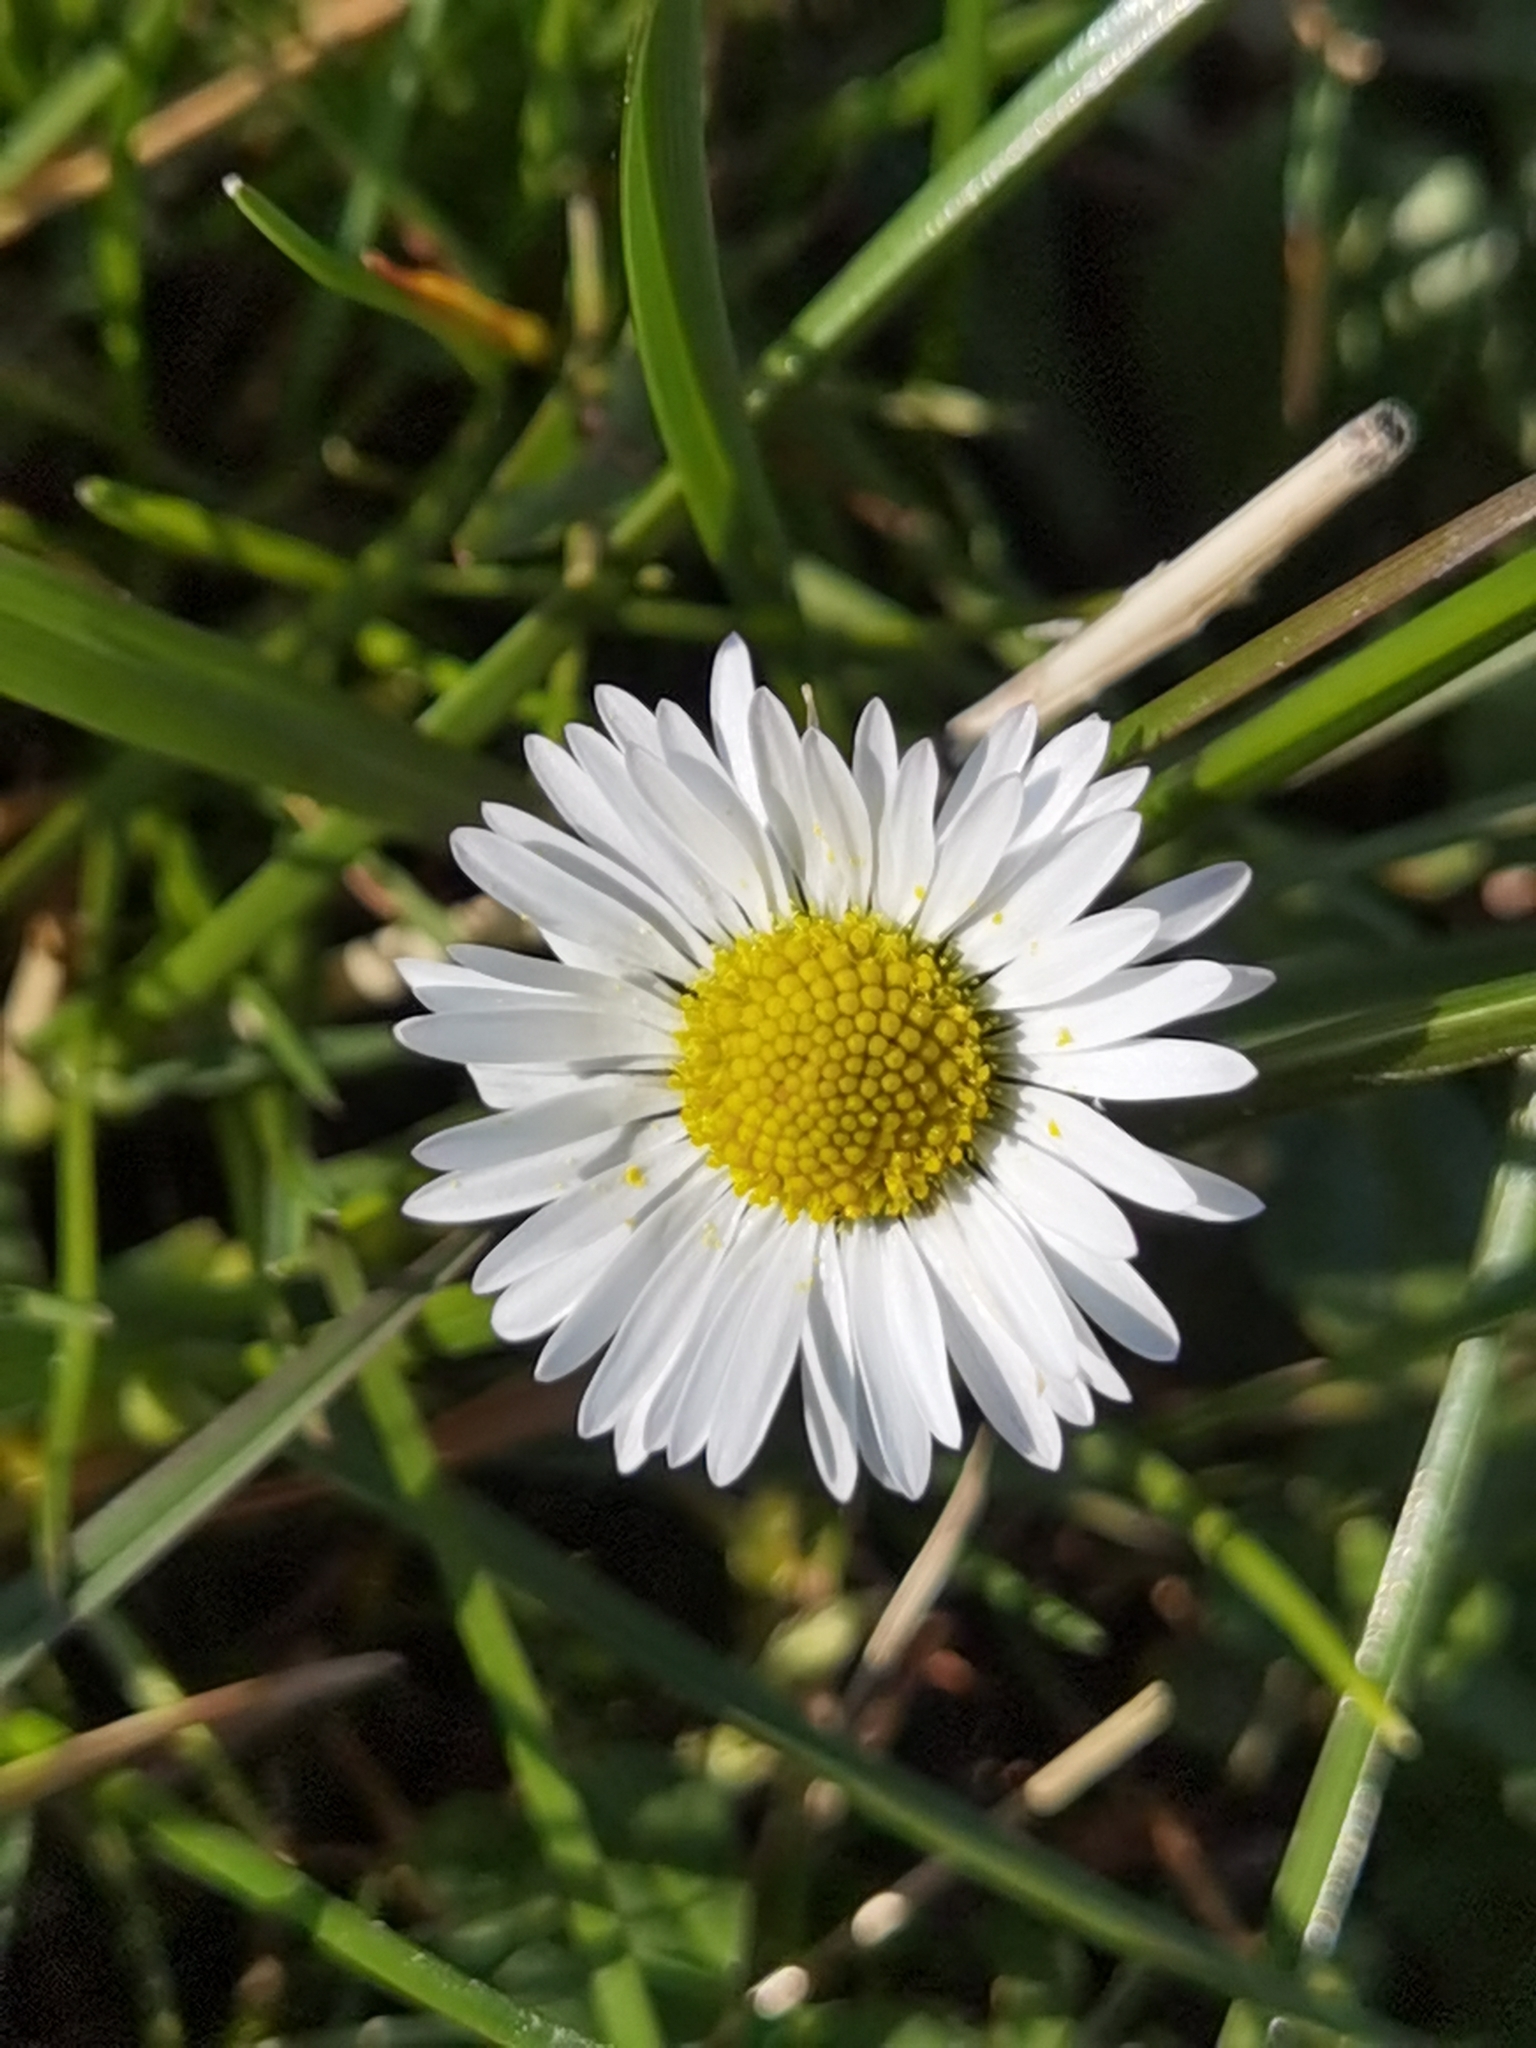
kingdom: Plantae
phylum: Tracheophyta
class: Magnoliopsida
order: Asterales
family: Asteraceae
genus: Bellis
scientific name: Bellis perennis
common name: Lawndaisy
